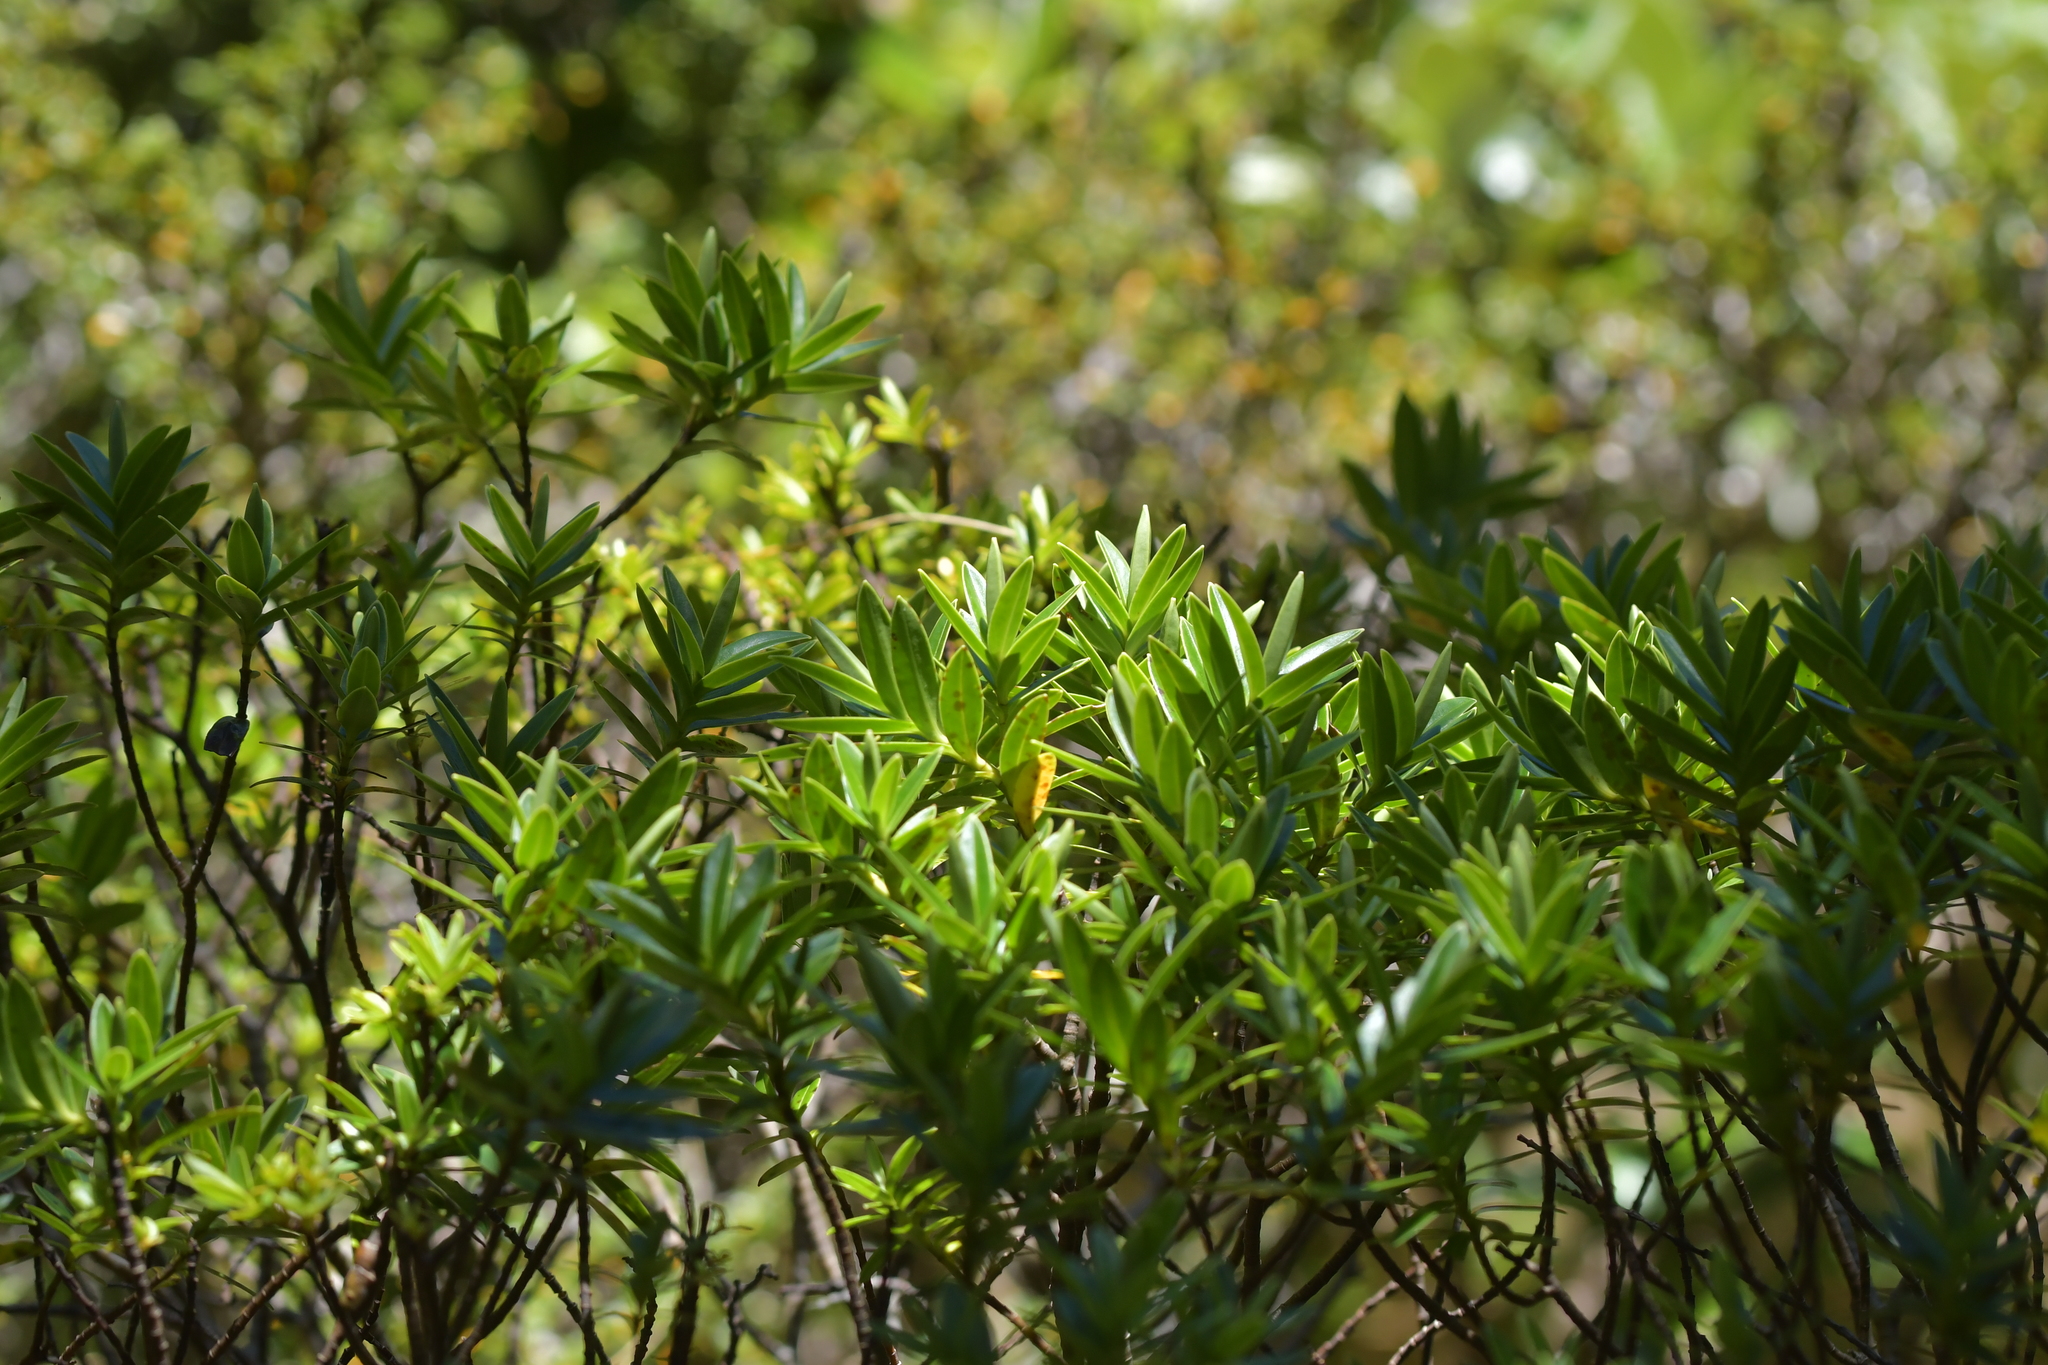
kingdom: Plantae
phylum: Tracheophyta
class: Magnoliopsida
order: Lamiales
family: Plantaginaceae
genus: Veronica
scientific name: Veronica truncatula
